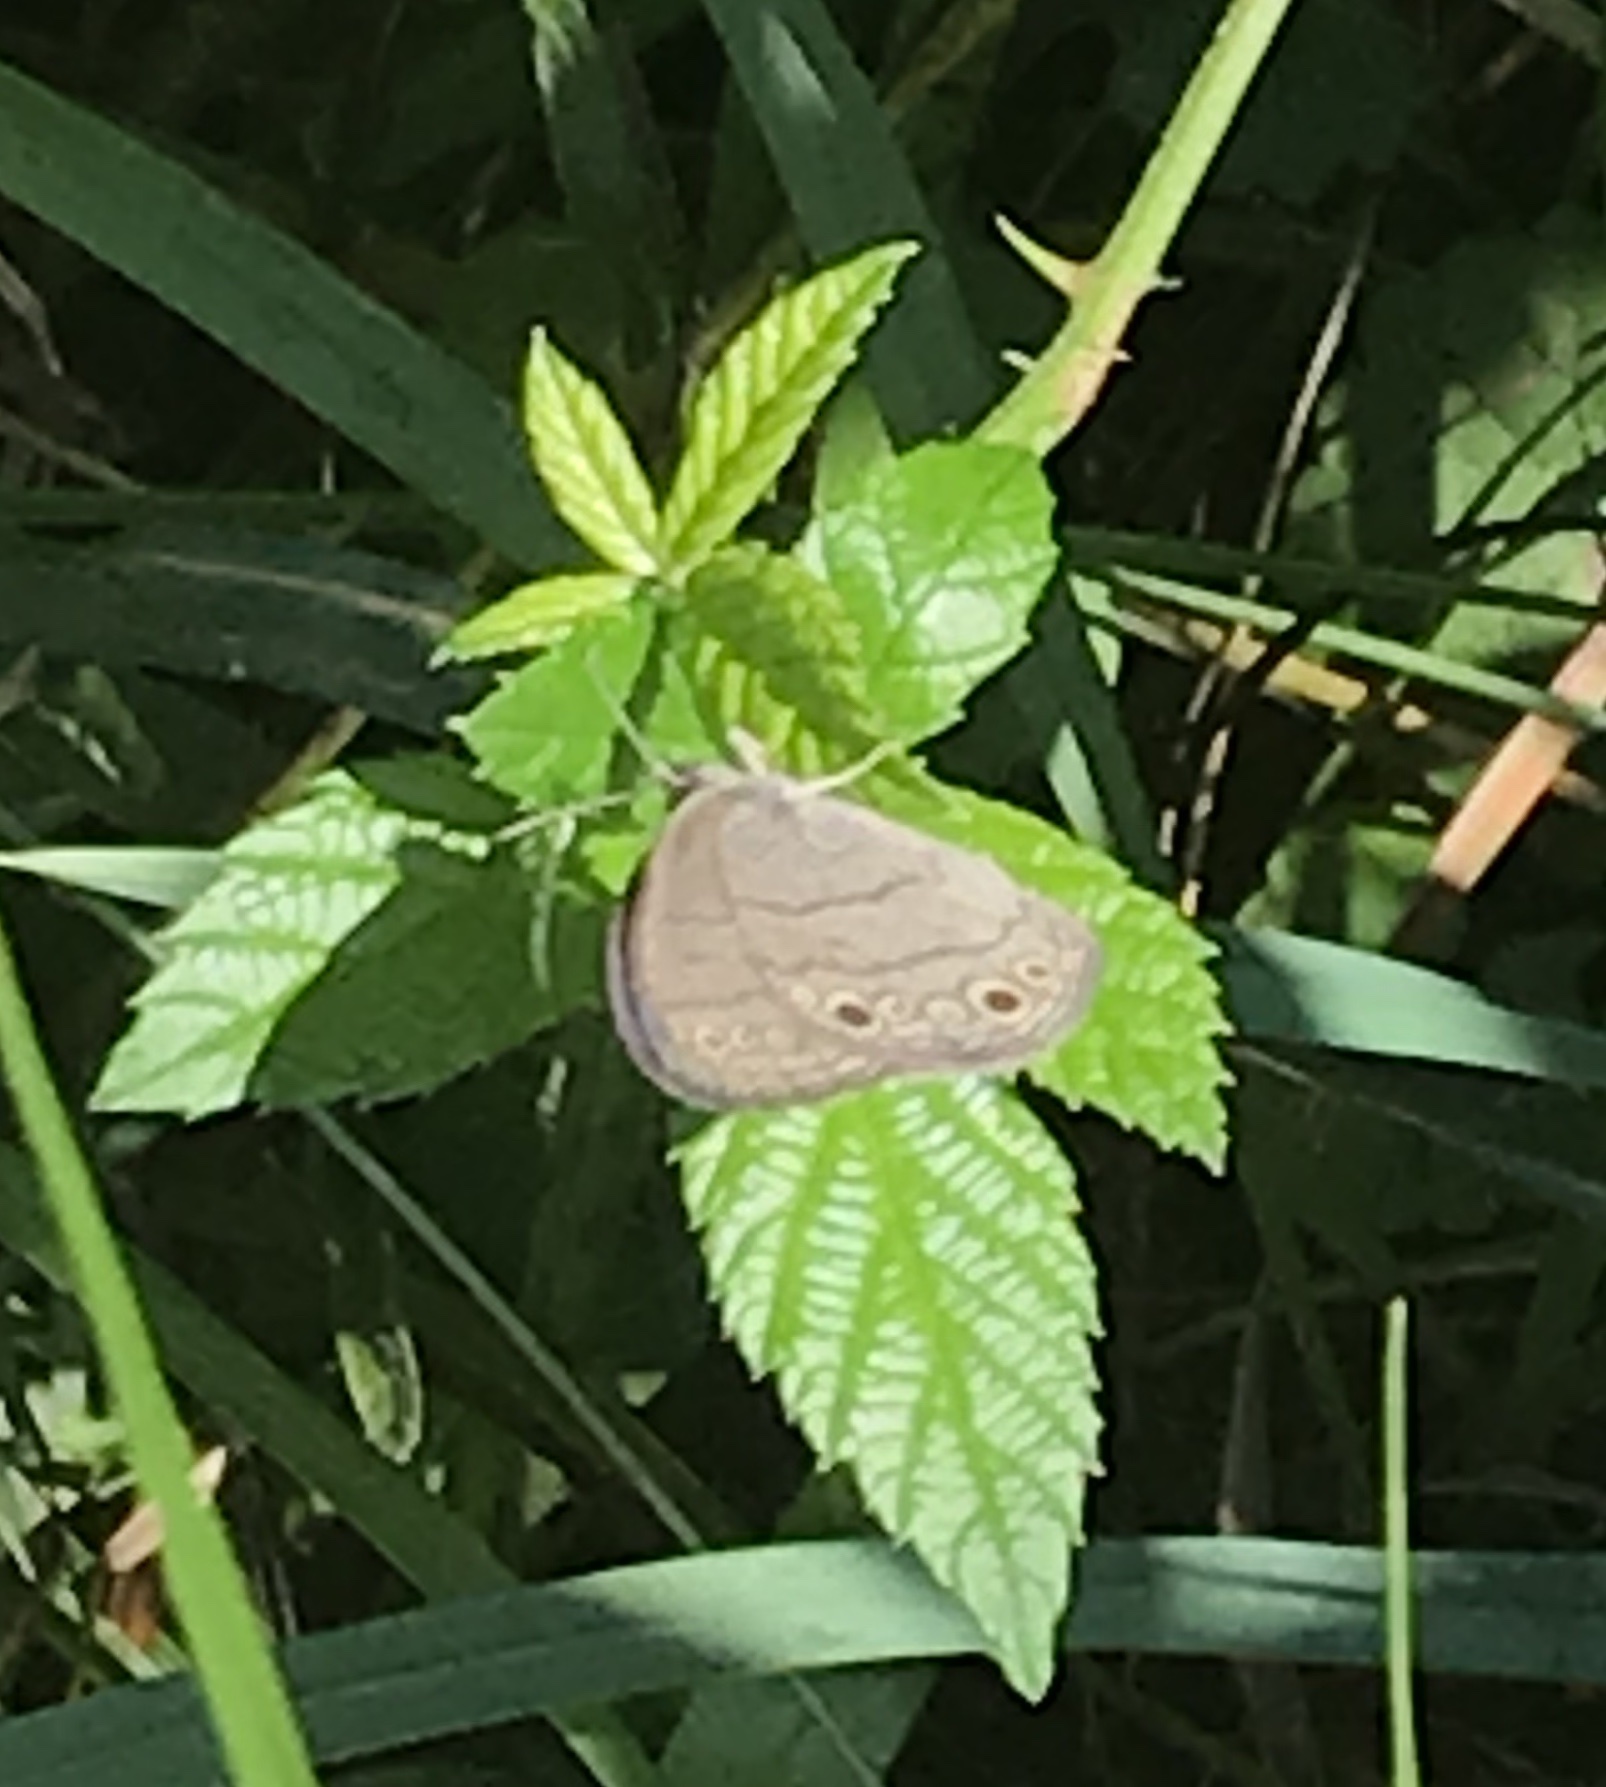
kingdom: Animalia
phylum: Arthropoda
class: Insecta
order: Lepidoptera
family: Nymphalidae
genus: Hermeuptychia
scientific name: Hermeuptychia hermes
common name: Hermes satyr
